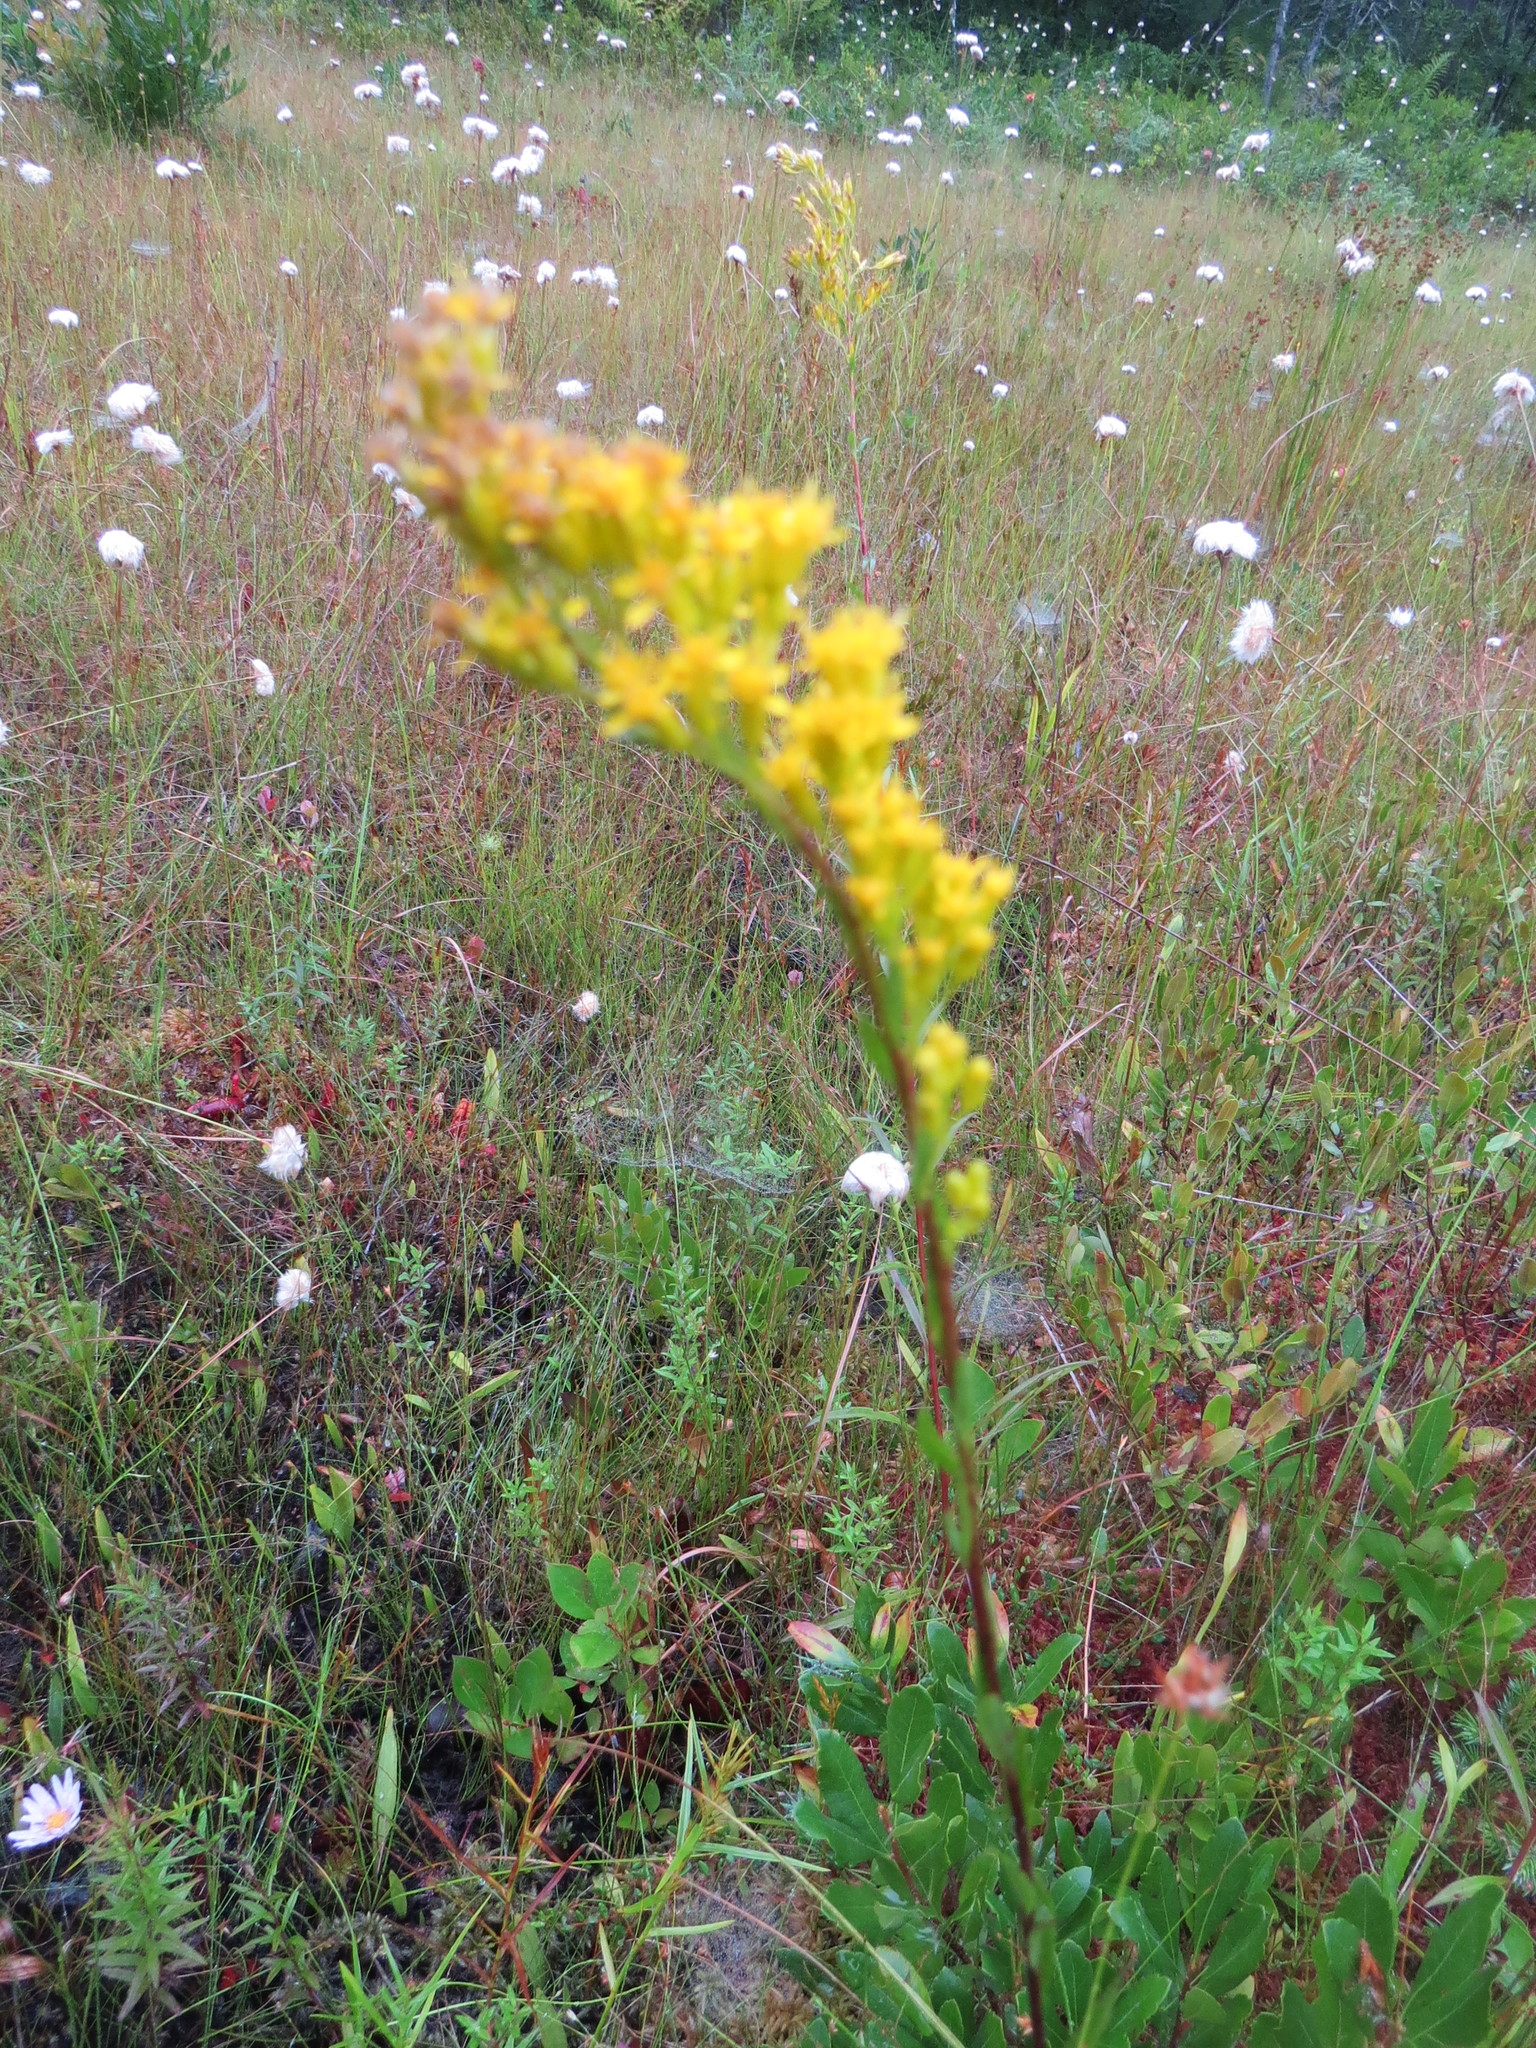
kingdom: Plantae
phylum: Tracheophyta
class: Magnoliopsida
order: Asterales
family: Asteraceae
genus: Solidago
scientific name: Solidago uliginosa
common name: Bog goldenrod
